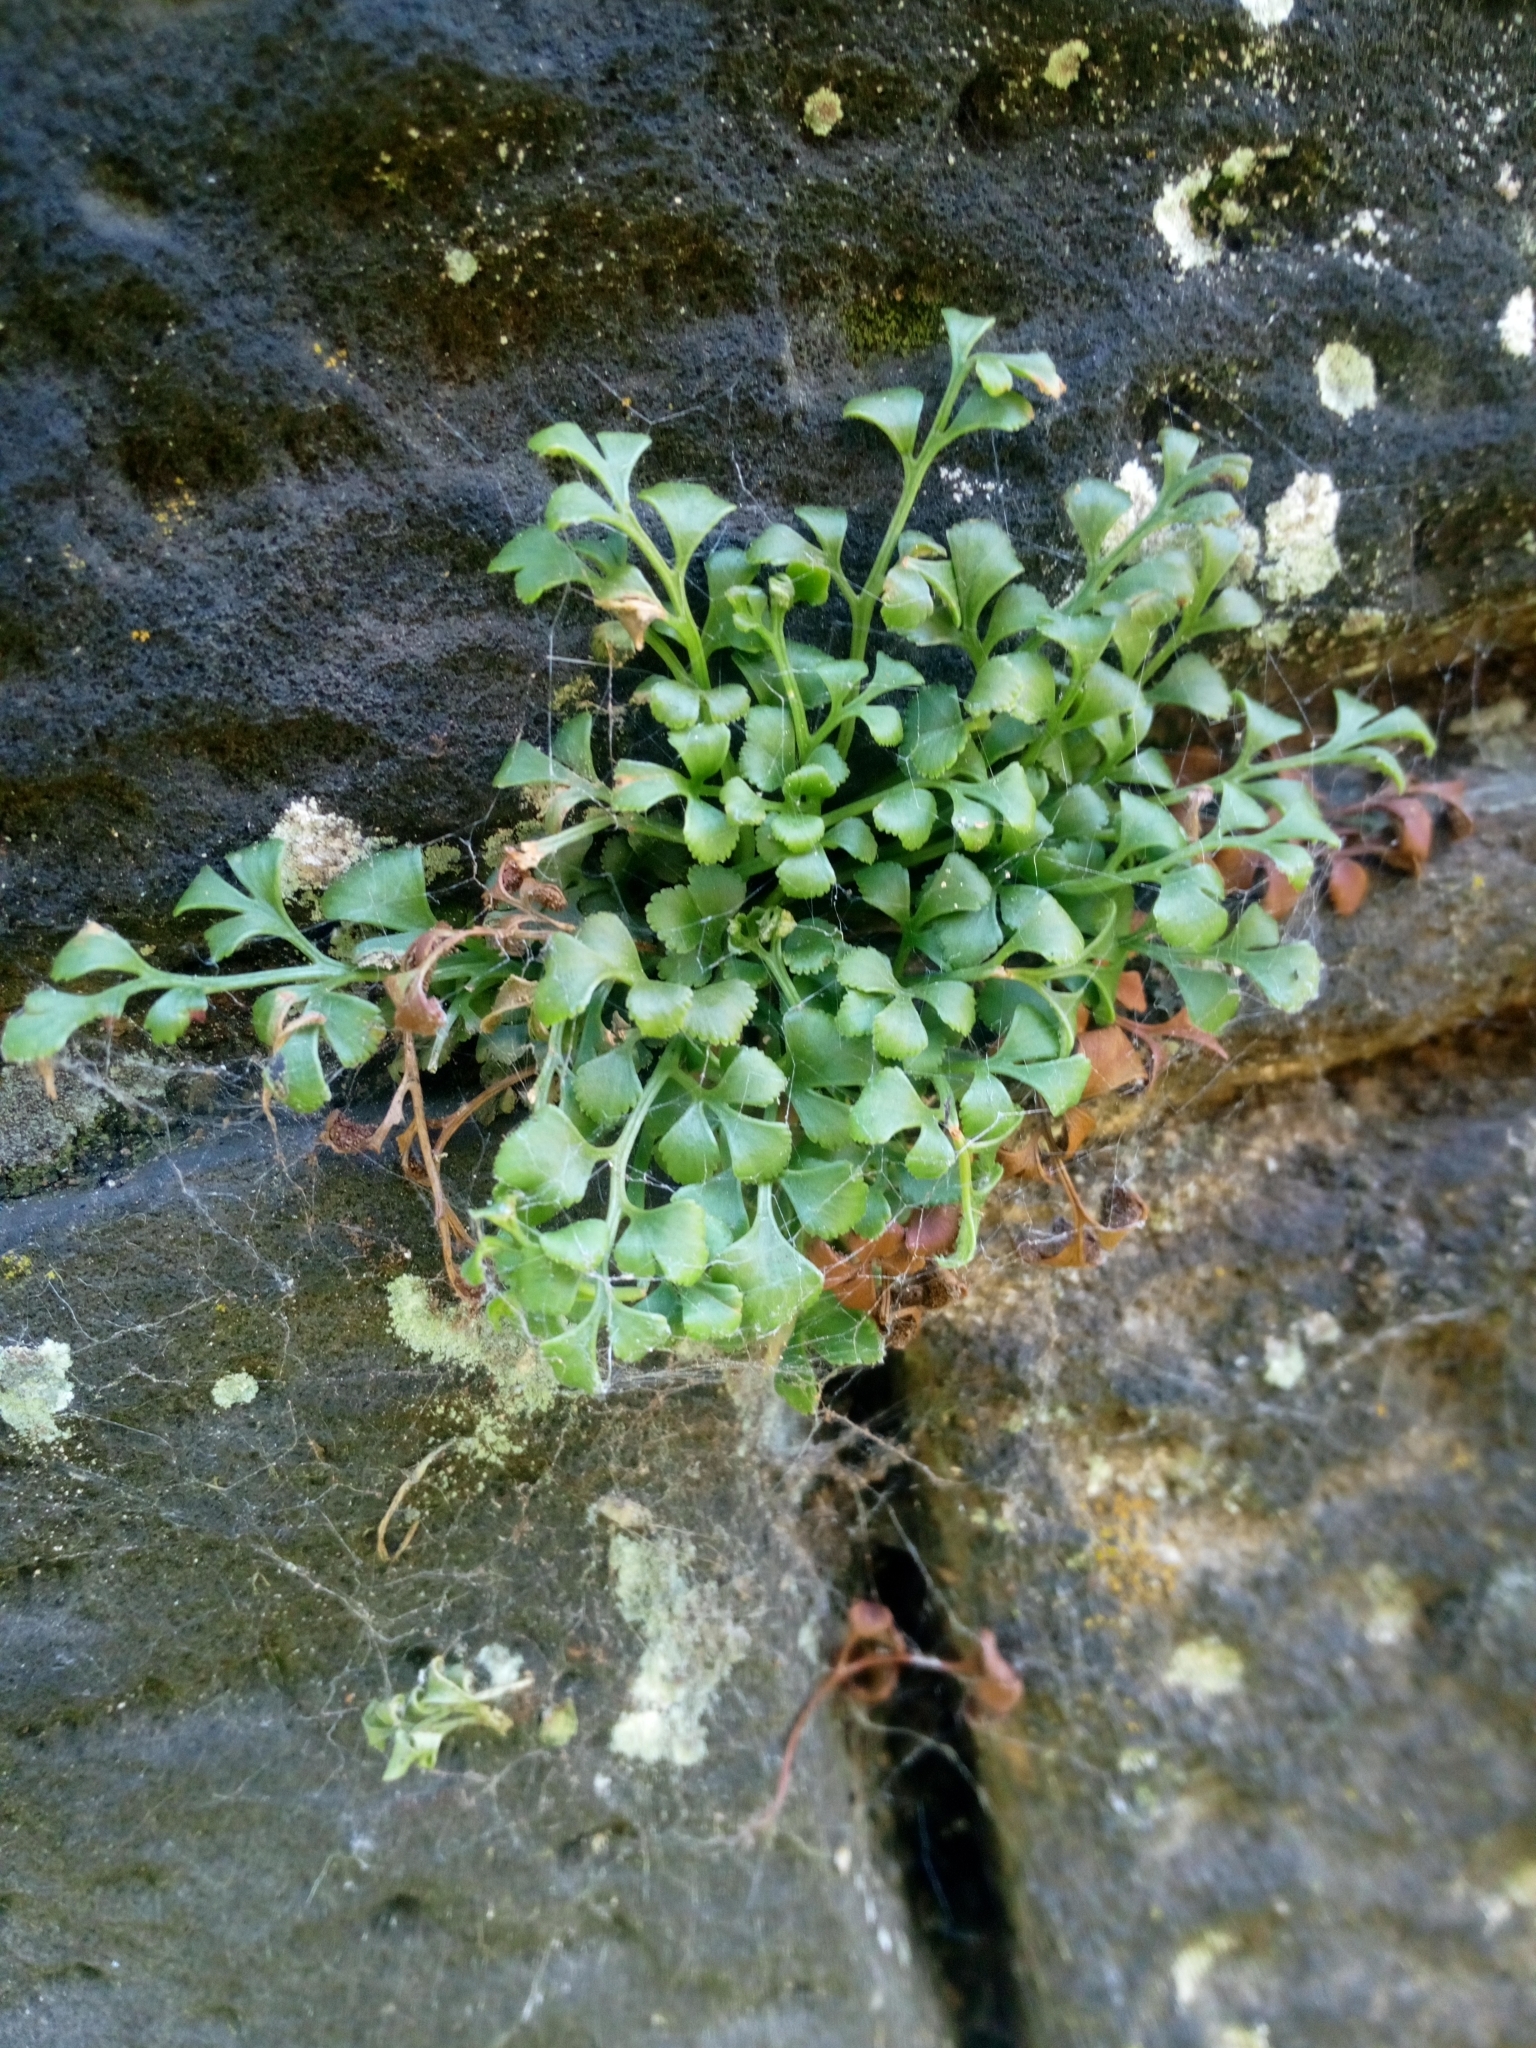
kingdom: Plantae
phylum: Tracheophyta
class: Polypodiopsida
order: Polypodiales
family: Aspleniaceae
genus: Asplenium
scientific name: Asplenium ruta-muraria
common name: Wall-rue
